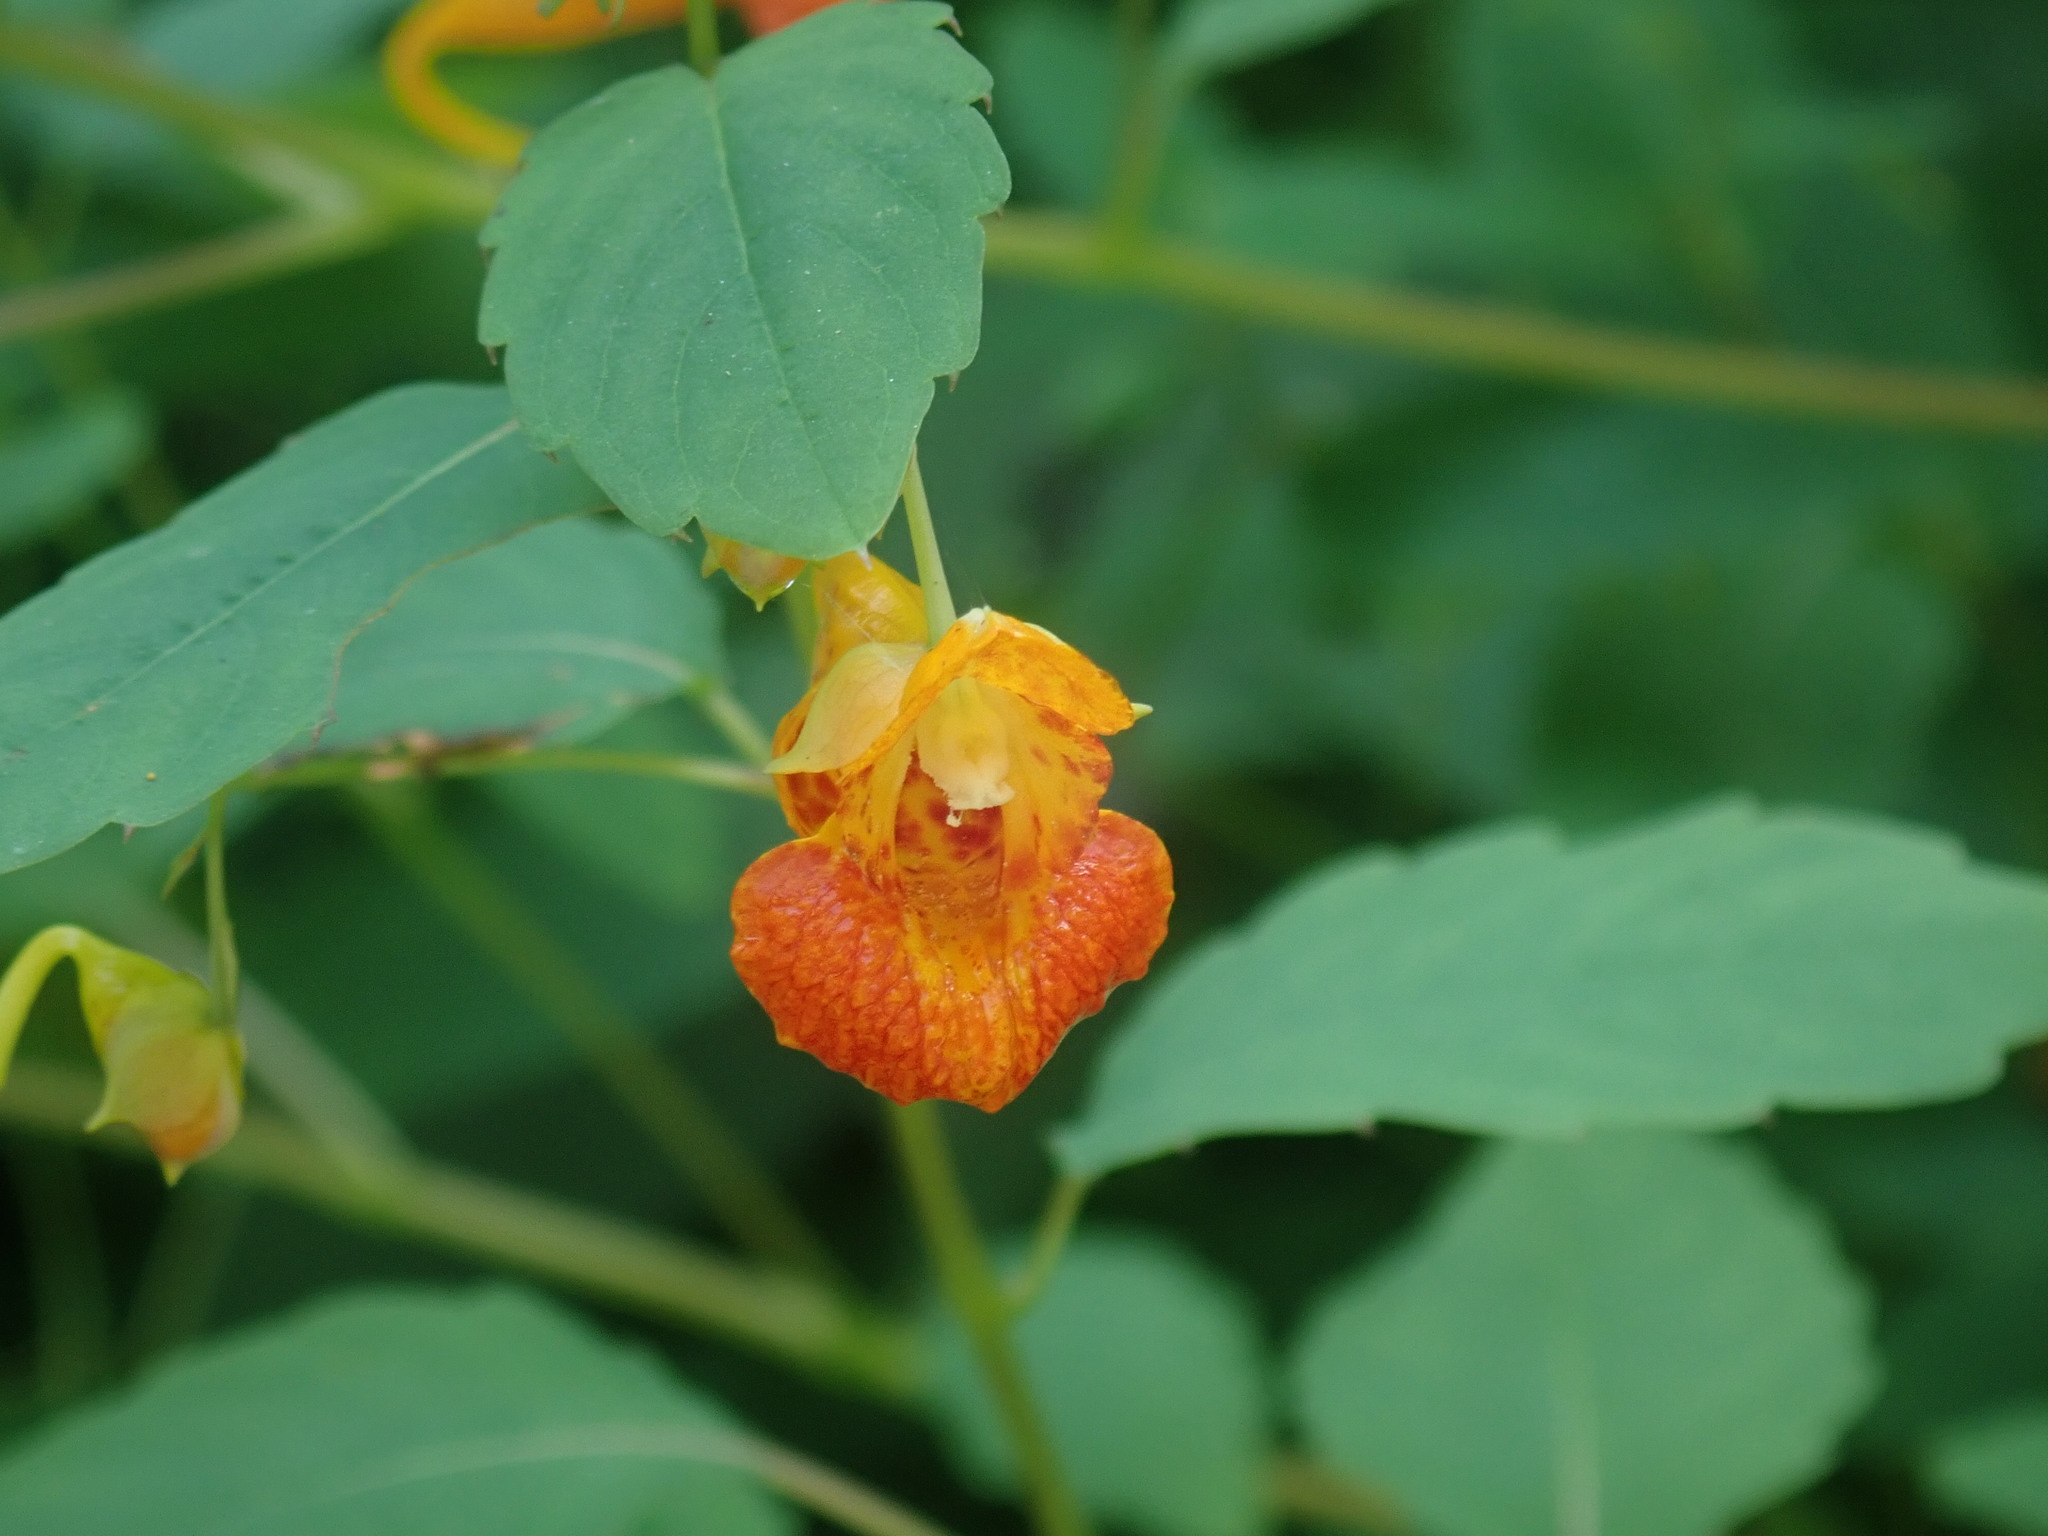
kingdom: Plantae
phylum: Tracheophyta
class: Magnoliopsida
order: Ericales
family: Balsaminaceae
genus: Impatiens
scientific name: Impatiens capensis
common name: Orange balsam
